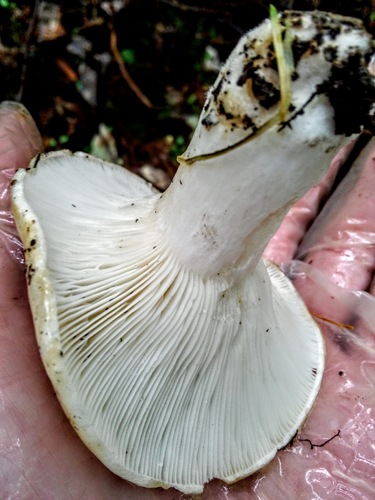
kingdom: Fungi
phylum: Basidiomycota
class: Agaricomycetes
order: Russulales
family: Russulaceae
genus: Lactarius
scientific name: Lactarius musteus
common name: Pine milkcap
